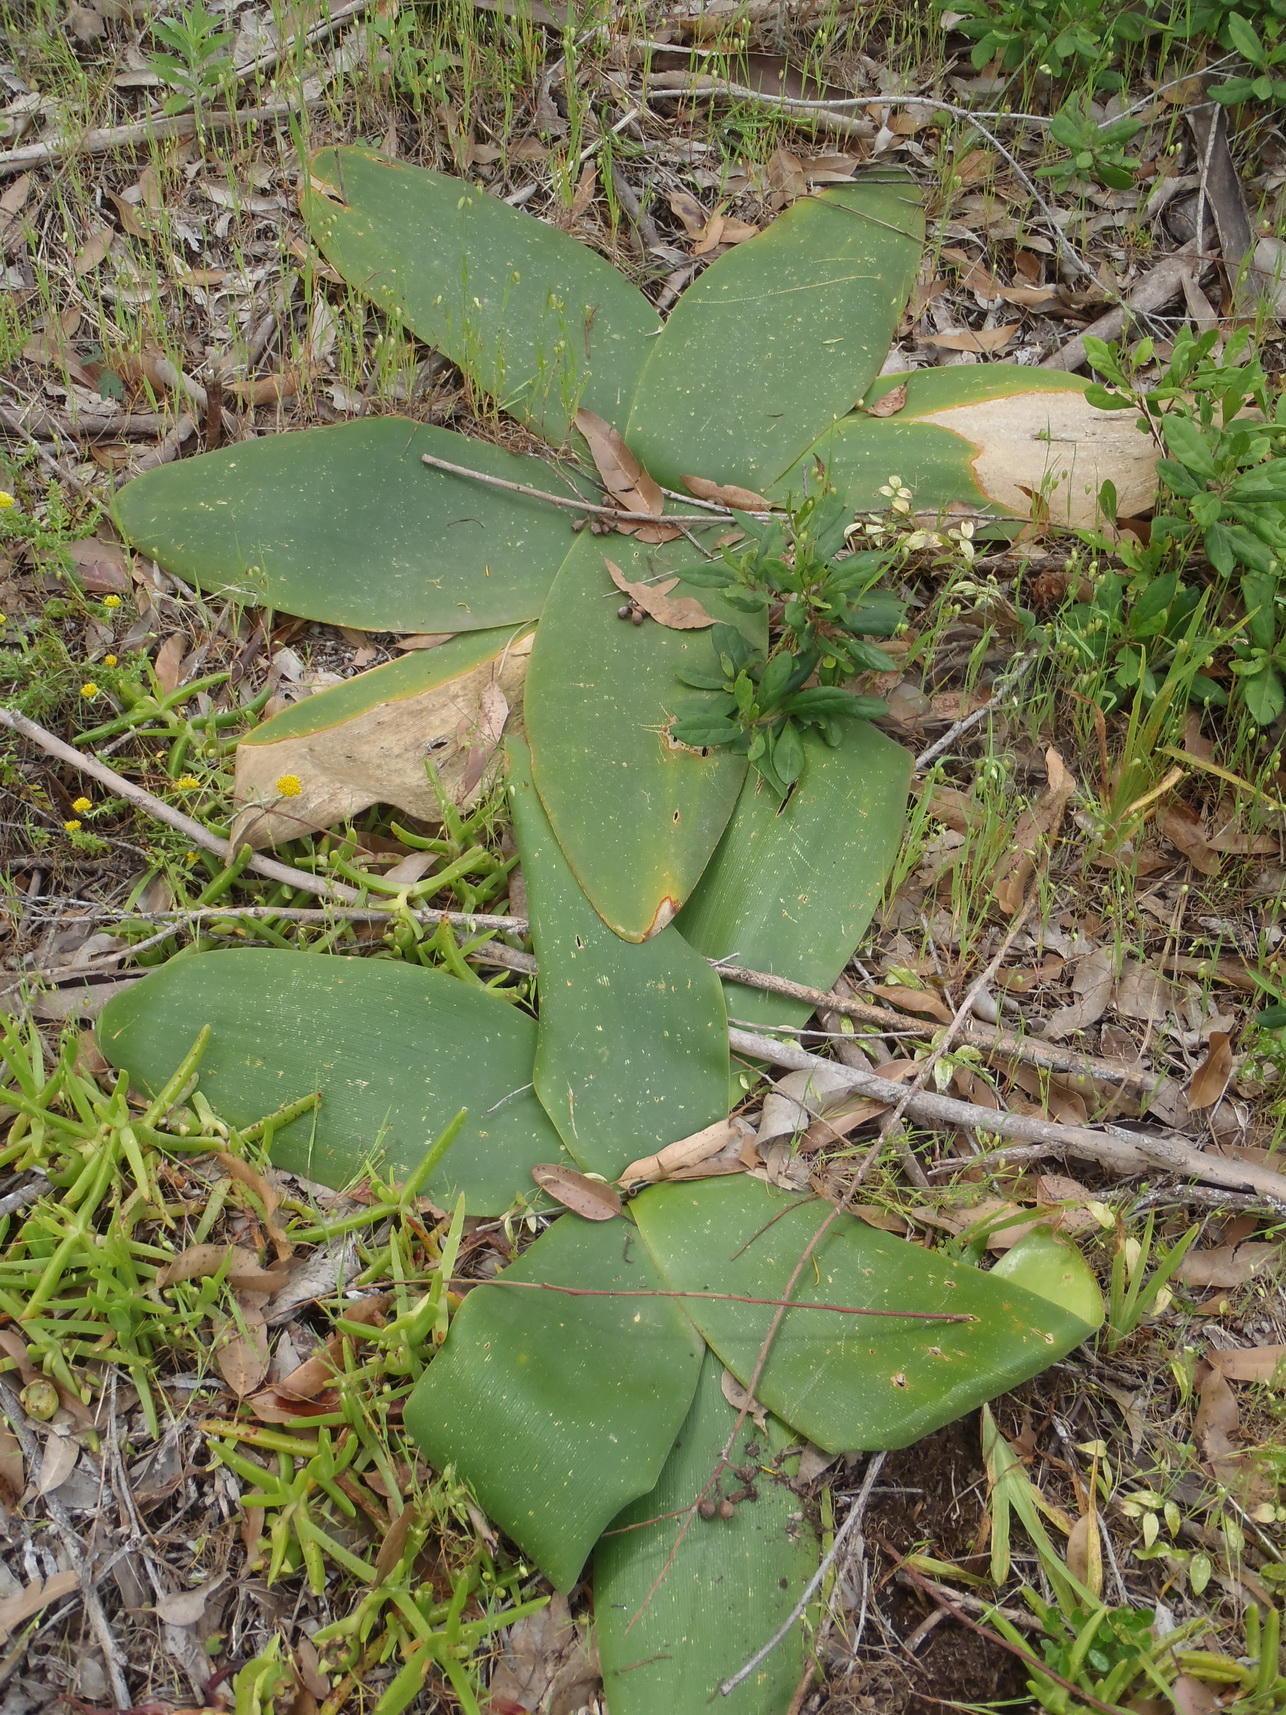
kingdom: Plantae
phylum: Tracheophyta
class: Liliopsida
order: Asparagales
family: Amaryllidaceae
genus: Brunsvigia
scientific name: Brunsvigia orientalis
